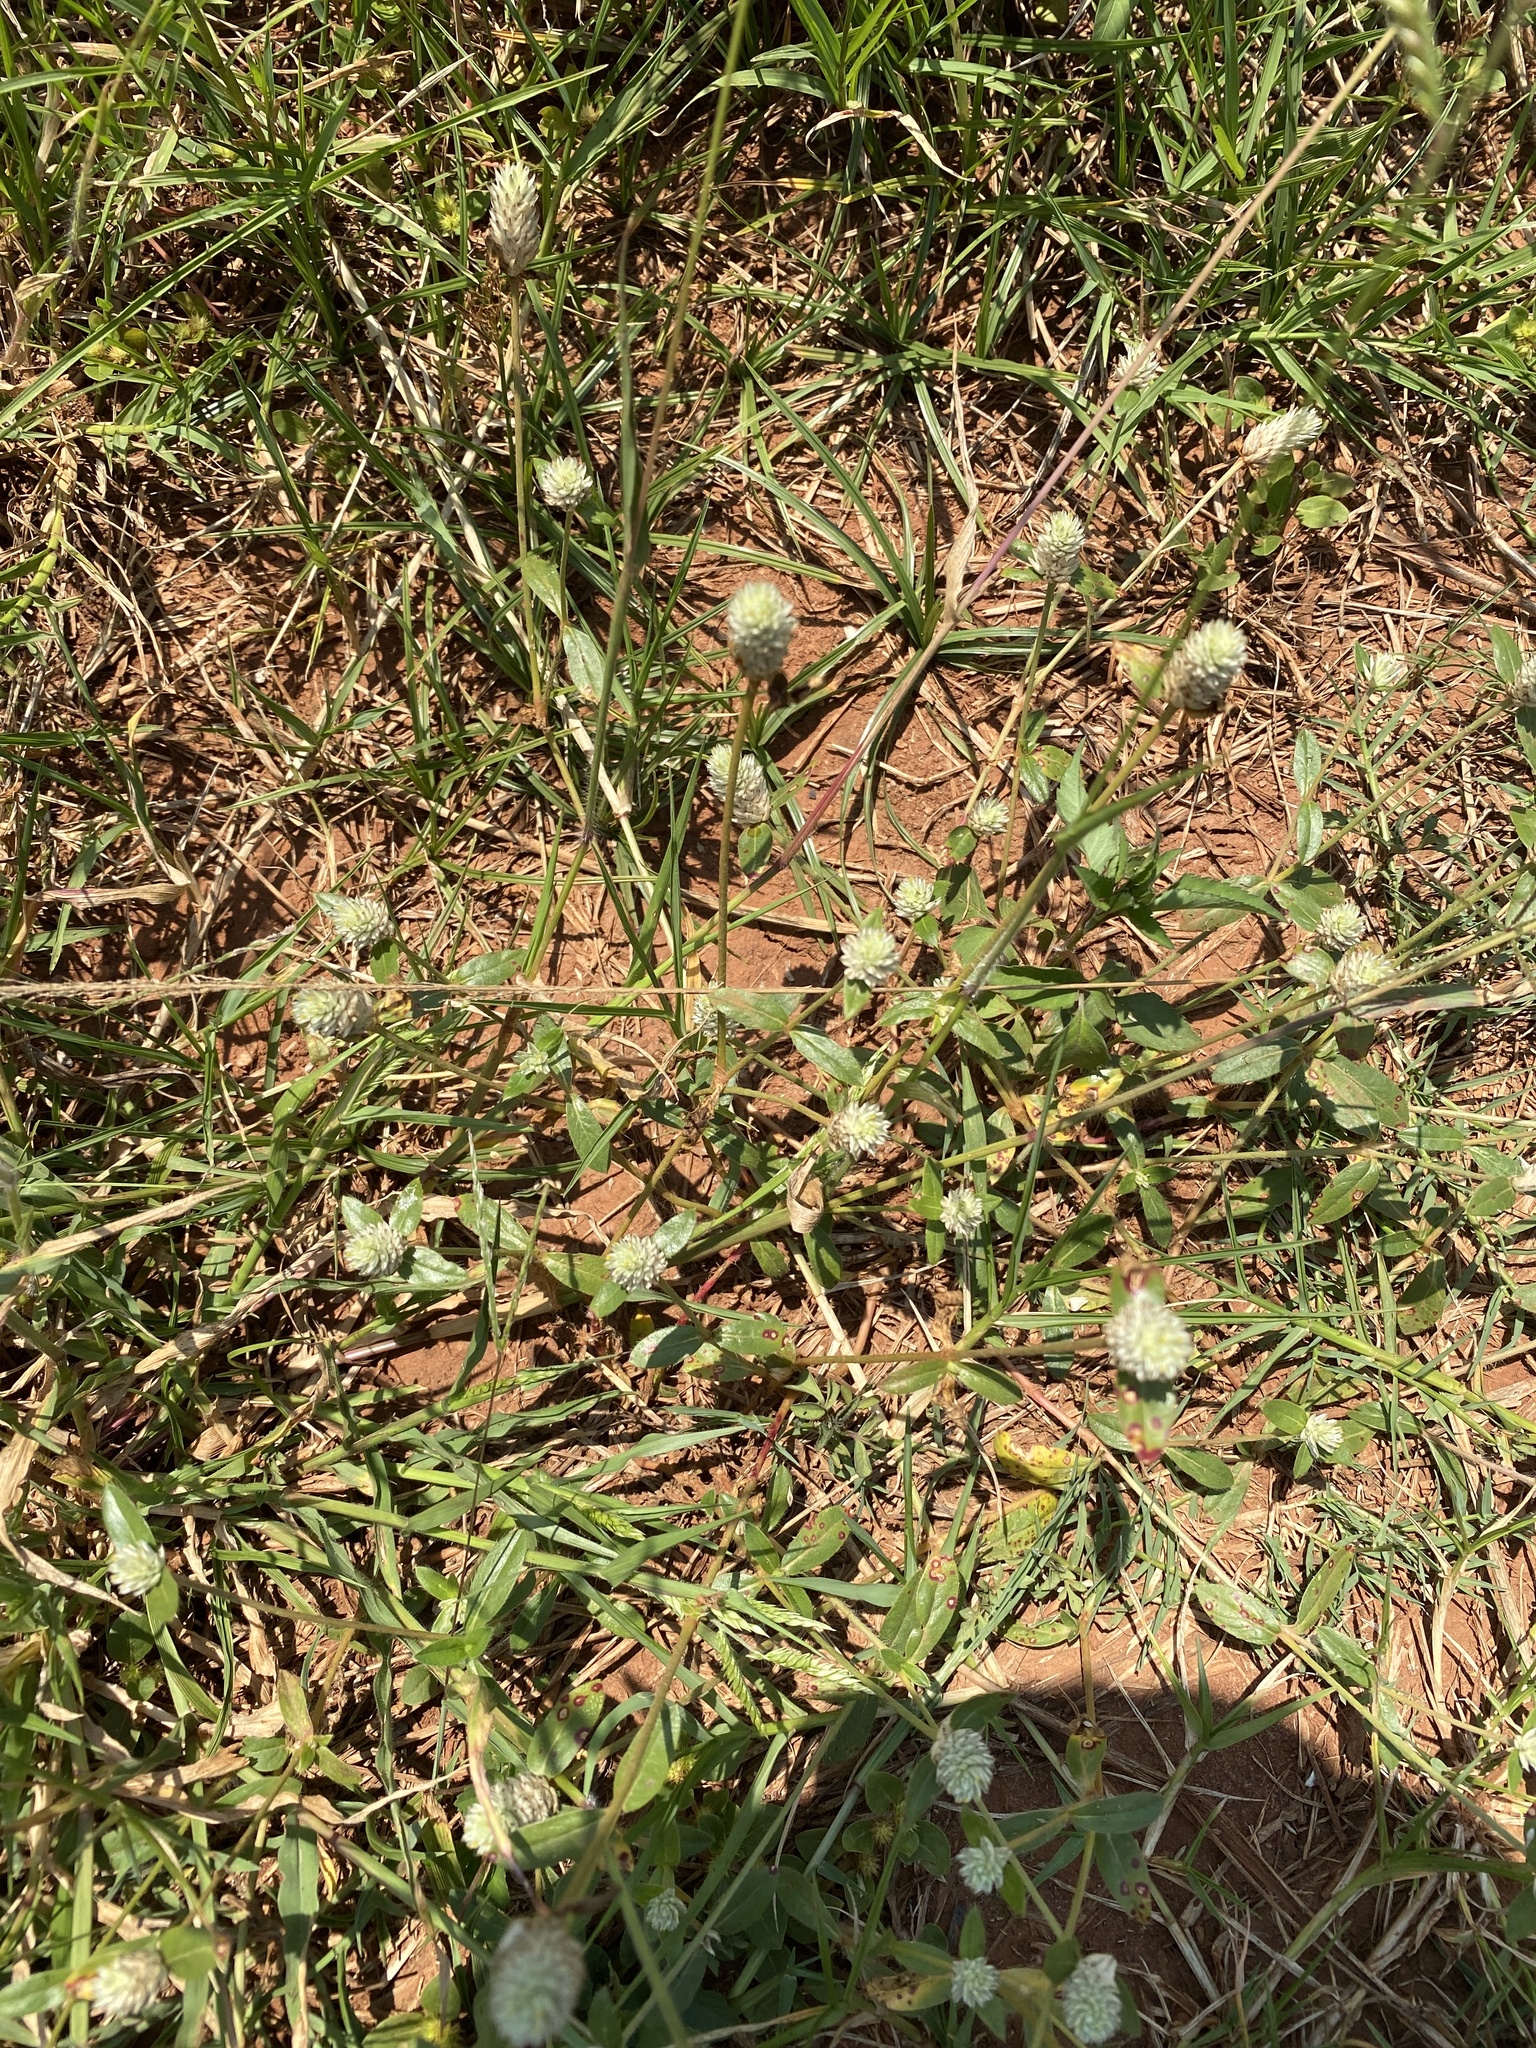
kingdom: Plantae
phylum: Tracheophyta
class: Magnoliopsida
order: Caryophyllales
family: Amaranthaceae
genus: Gomphrena
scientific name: Gomphrena celosioides
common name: Gomphrena-weed
